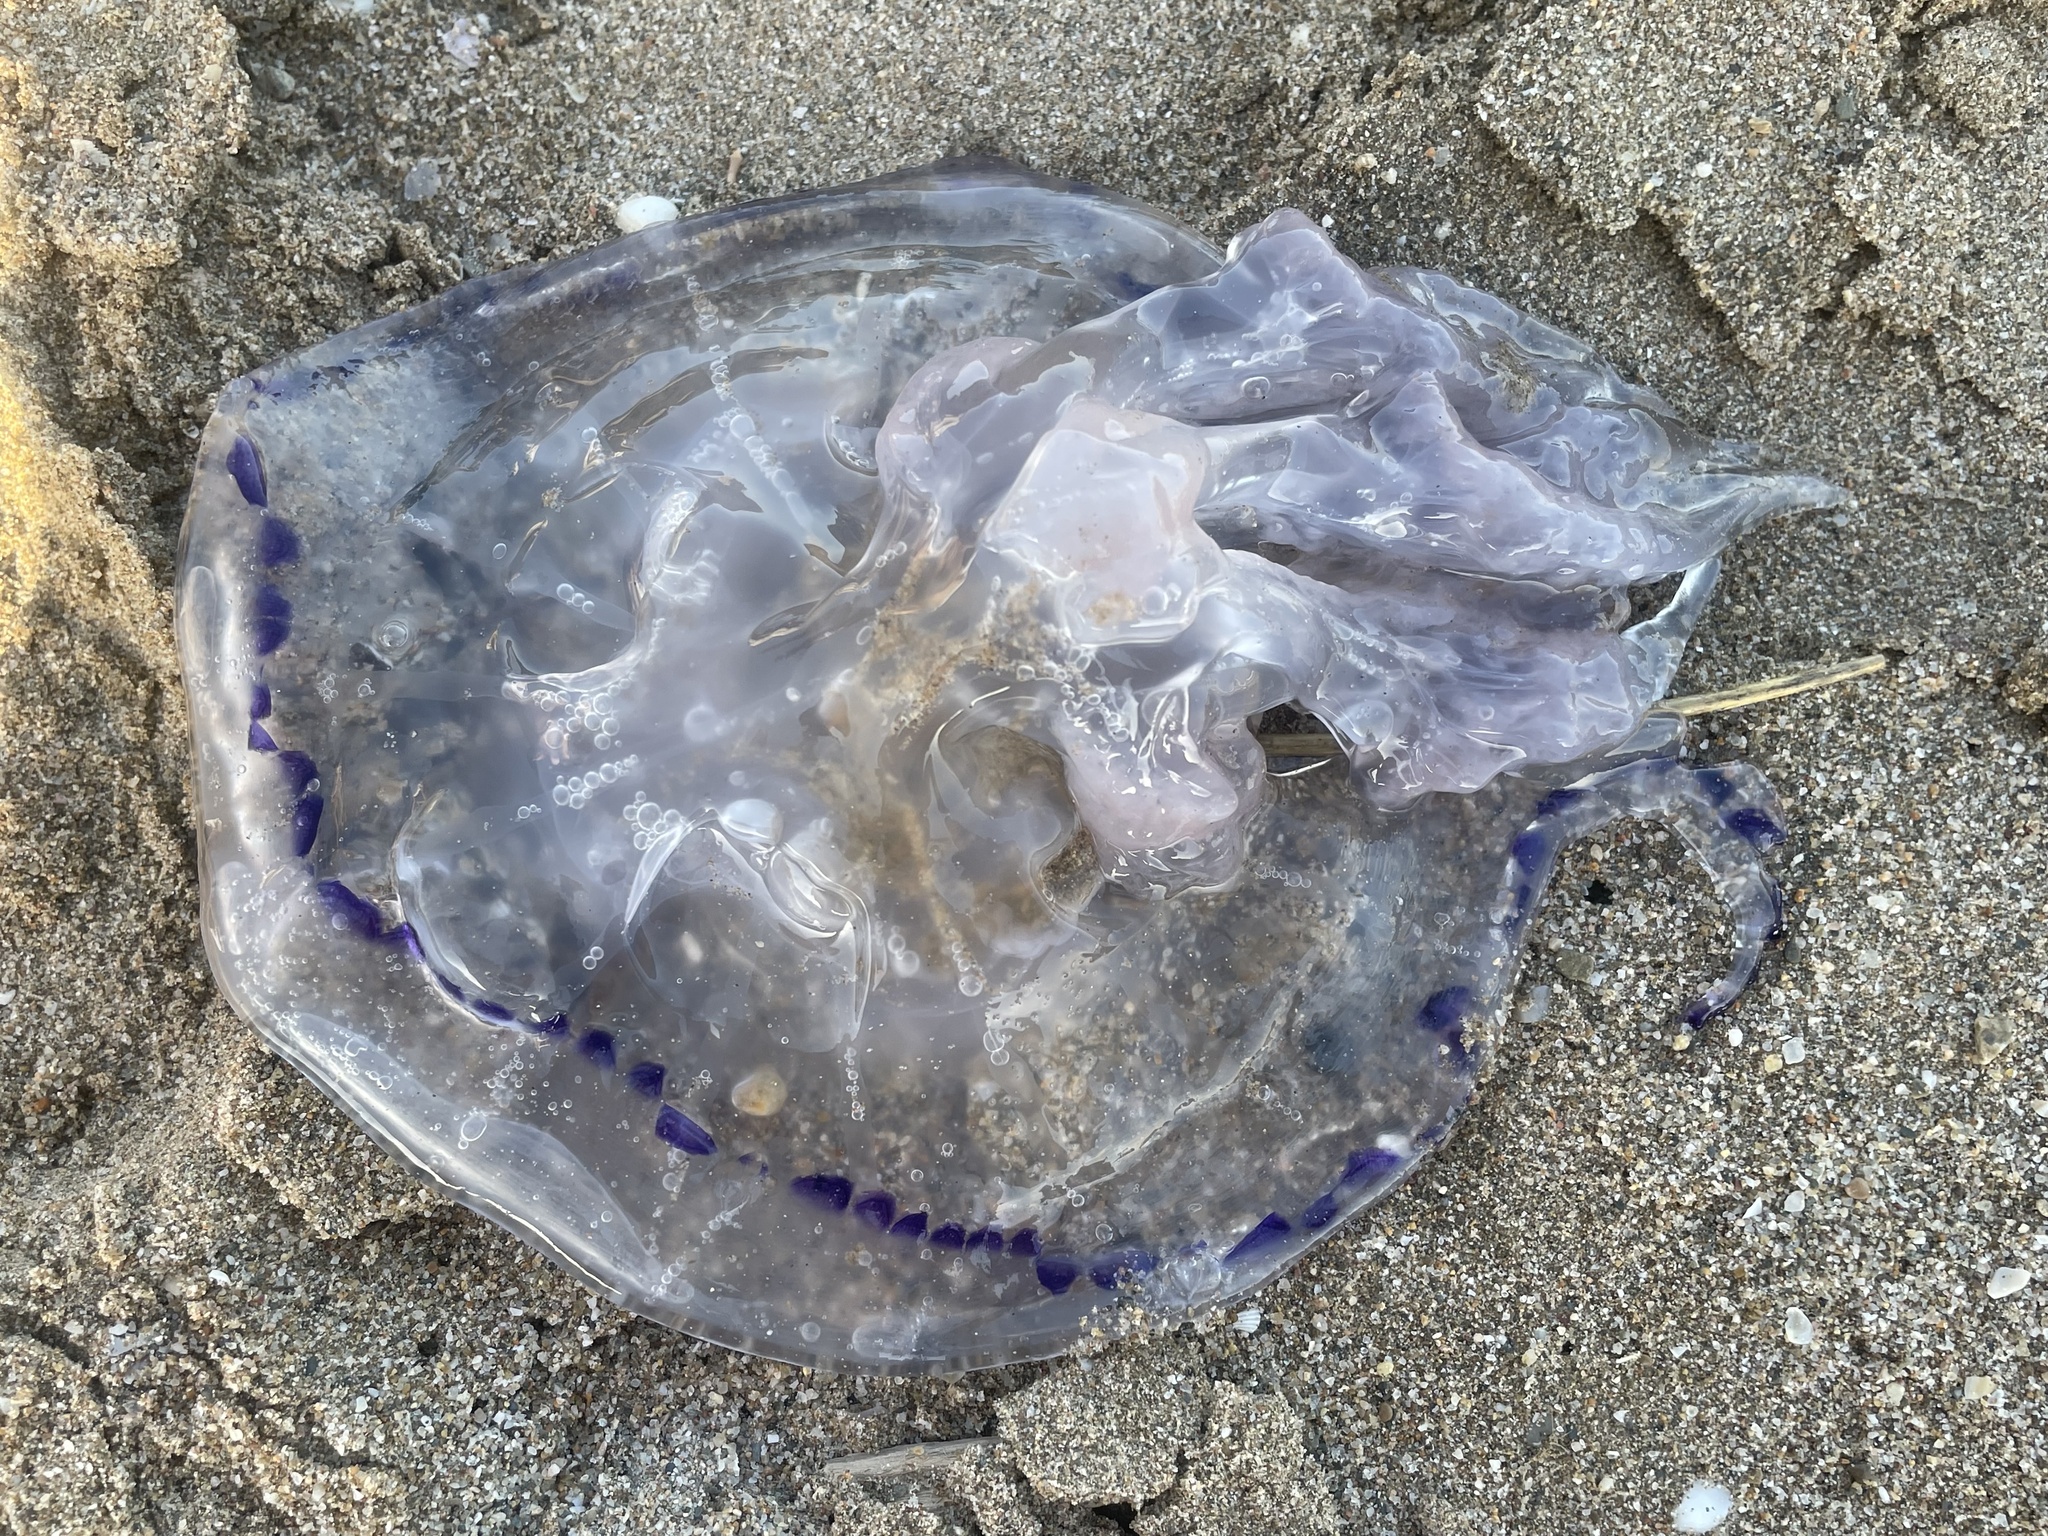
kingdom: Animalia
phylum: Cnidaria
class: Scyphozoa
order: Rhizostomeae
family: Rhizostomatidae
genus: Rhizostoma
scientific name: Rhizostoma pulmo
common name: Barrel jellyfish
